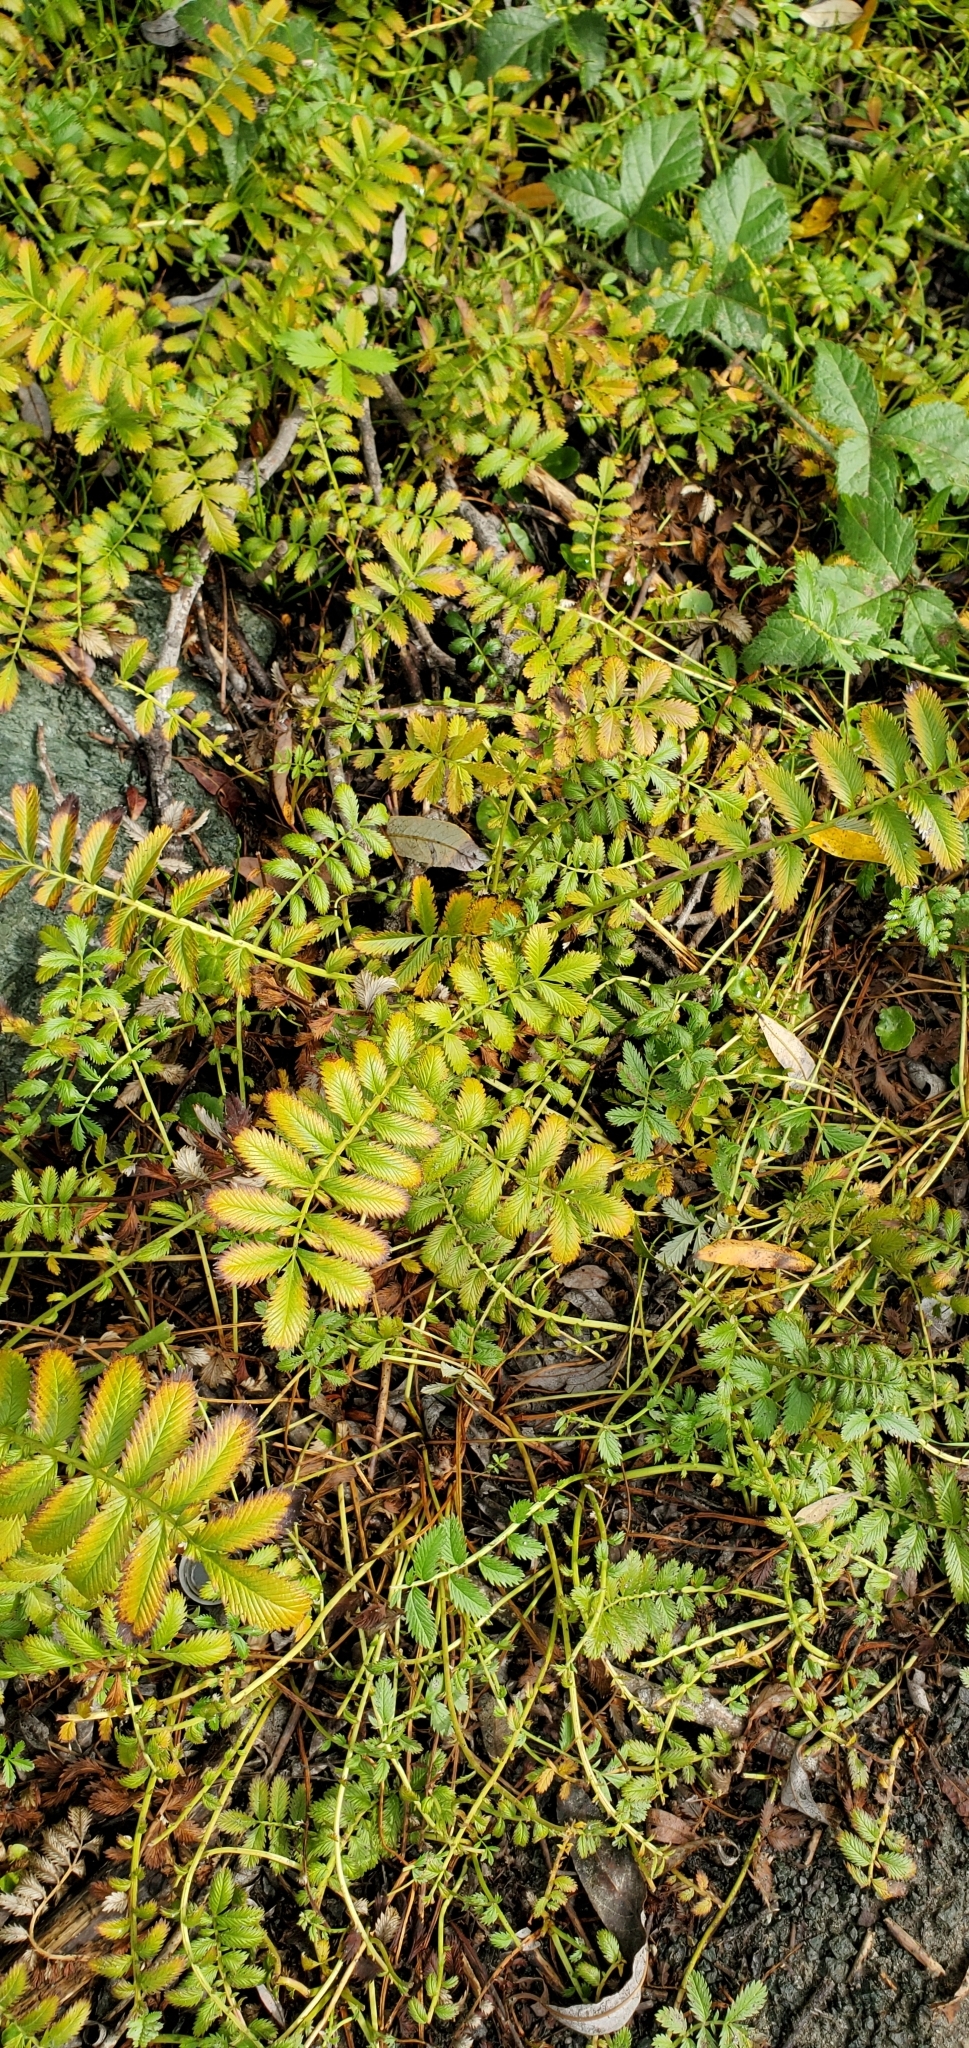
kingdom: Plantae
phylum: Tracheophyta
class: Magnoliopsida
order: Rosales
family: Rosaceae
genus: Argentina
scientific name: Argentina anserina
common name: Common silverweed
